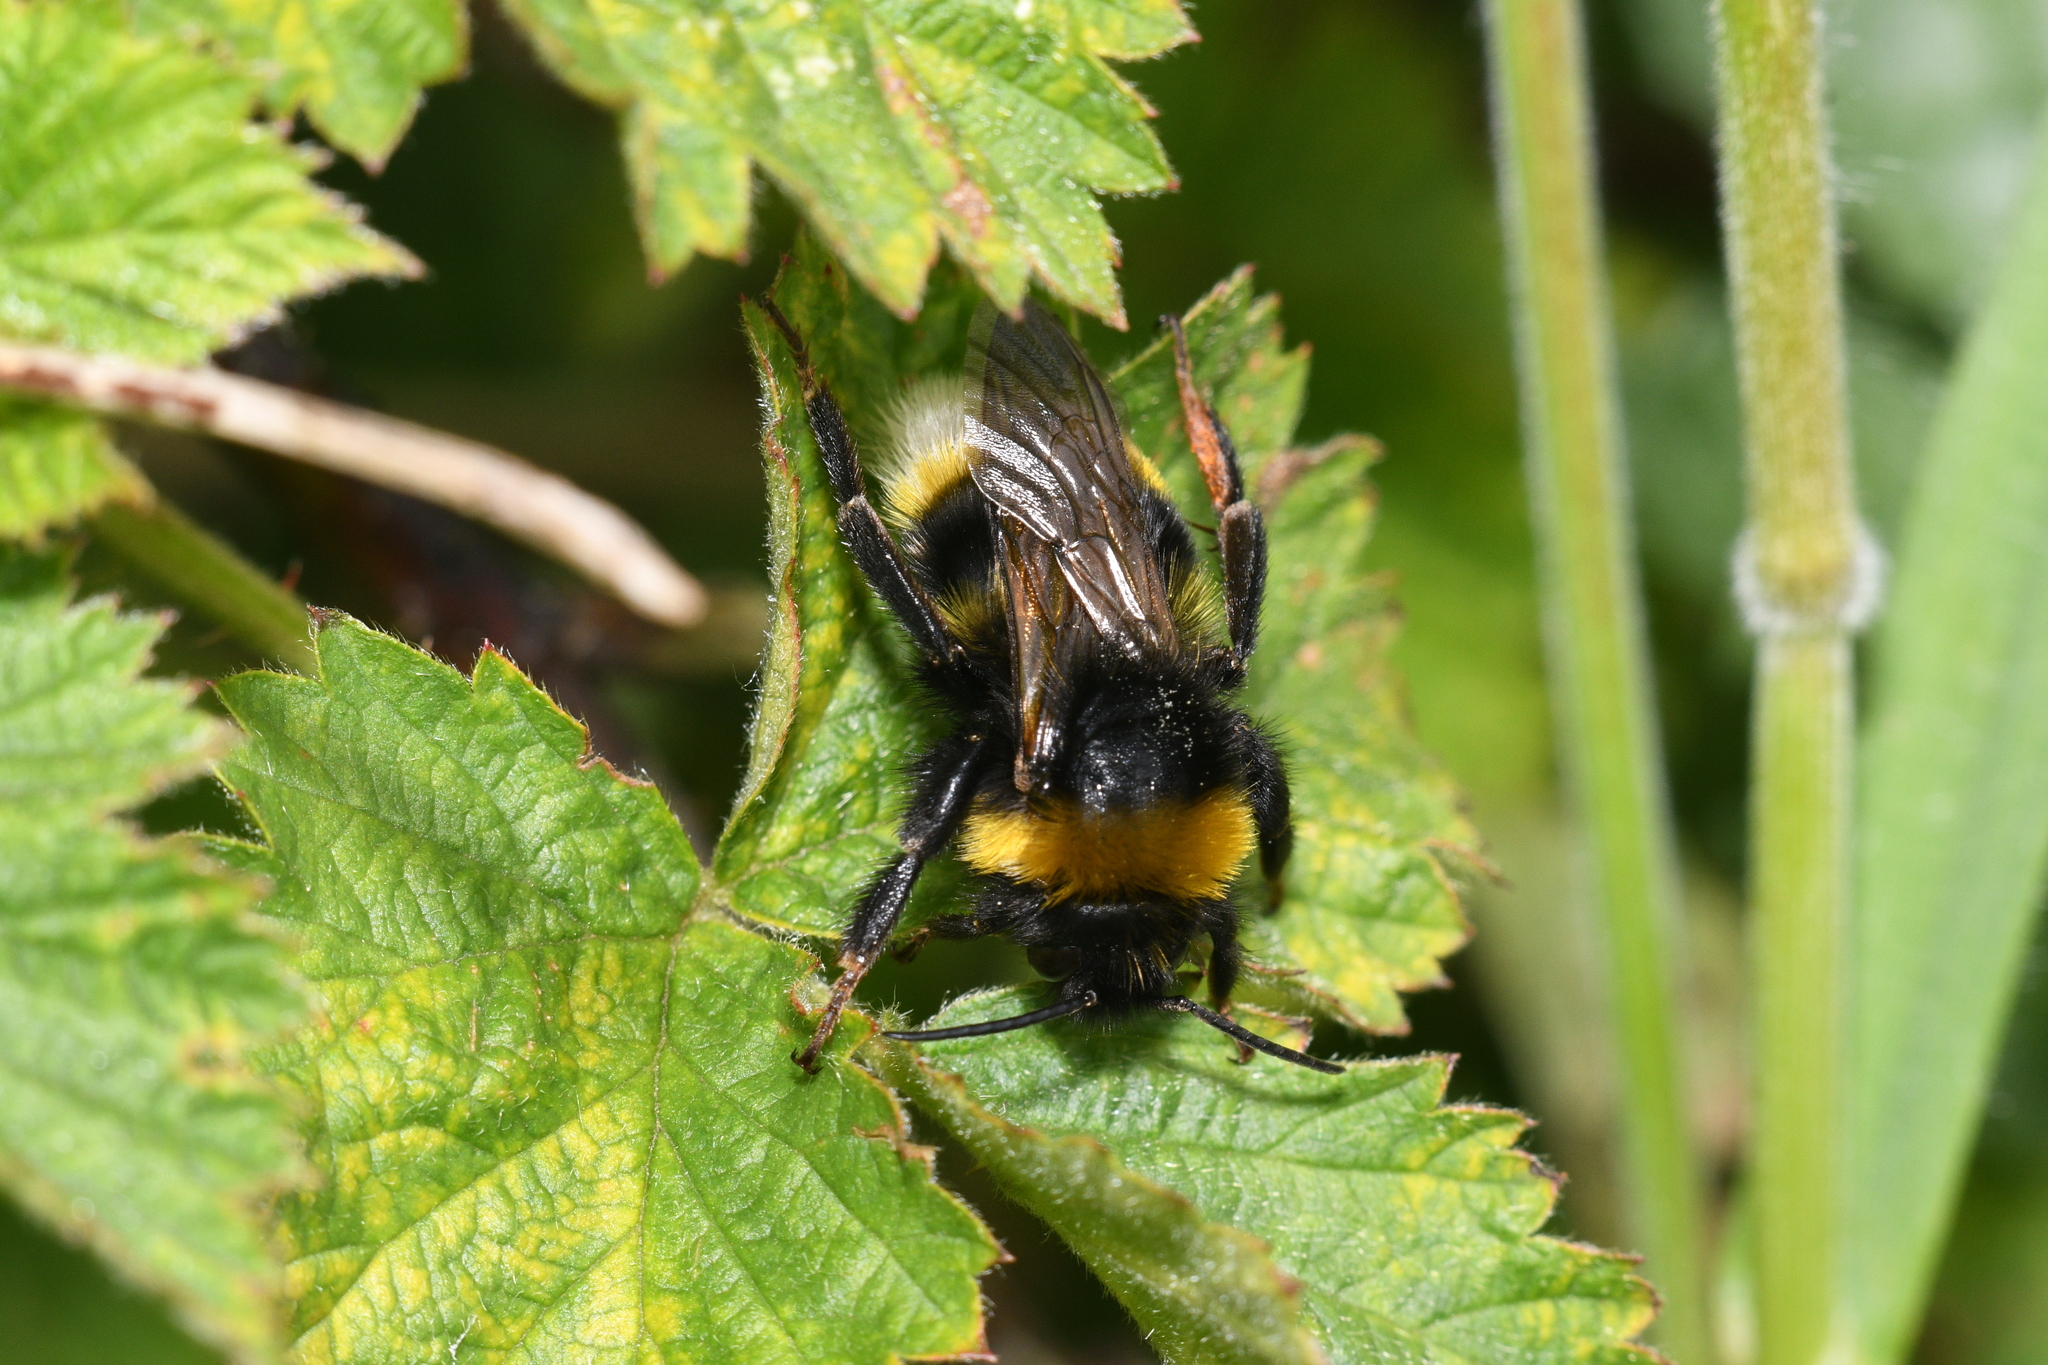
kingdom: Animalia
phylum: Arthropoda
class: Insecta
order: Hymenoptera
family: Apidae
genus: Bombus
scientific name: Bombus terrestris
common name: Buff-tailed bumblebee
